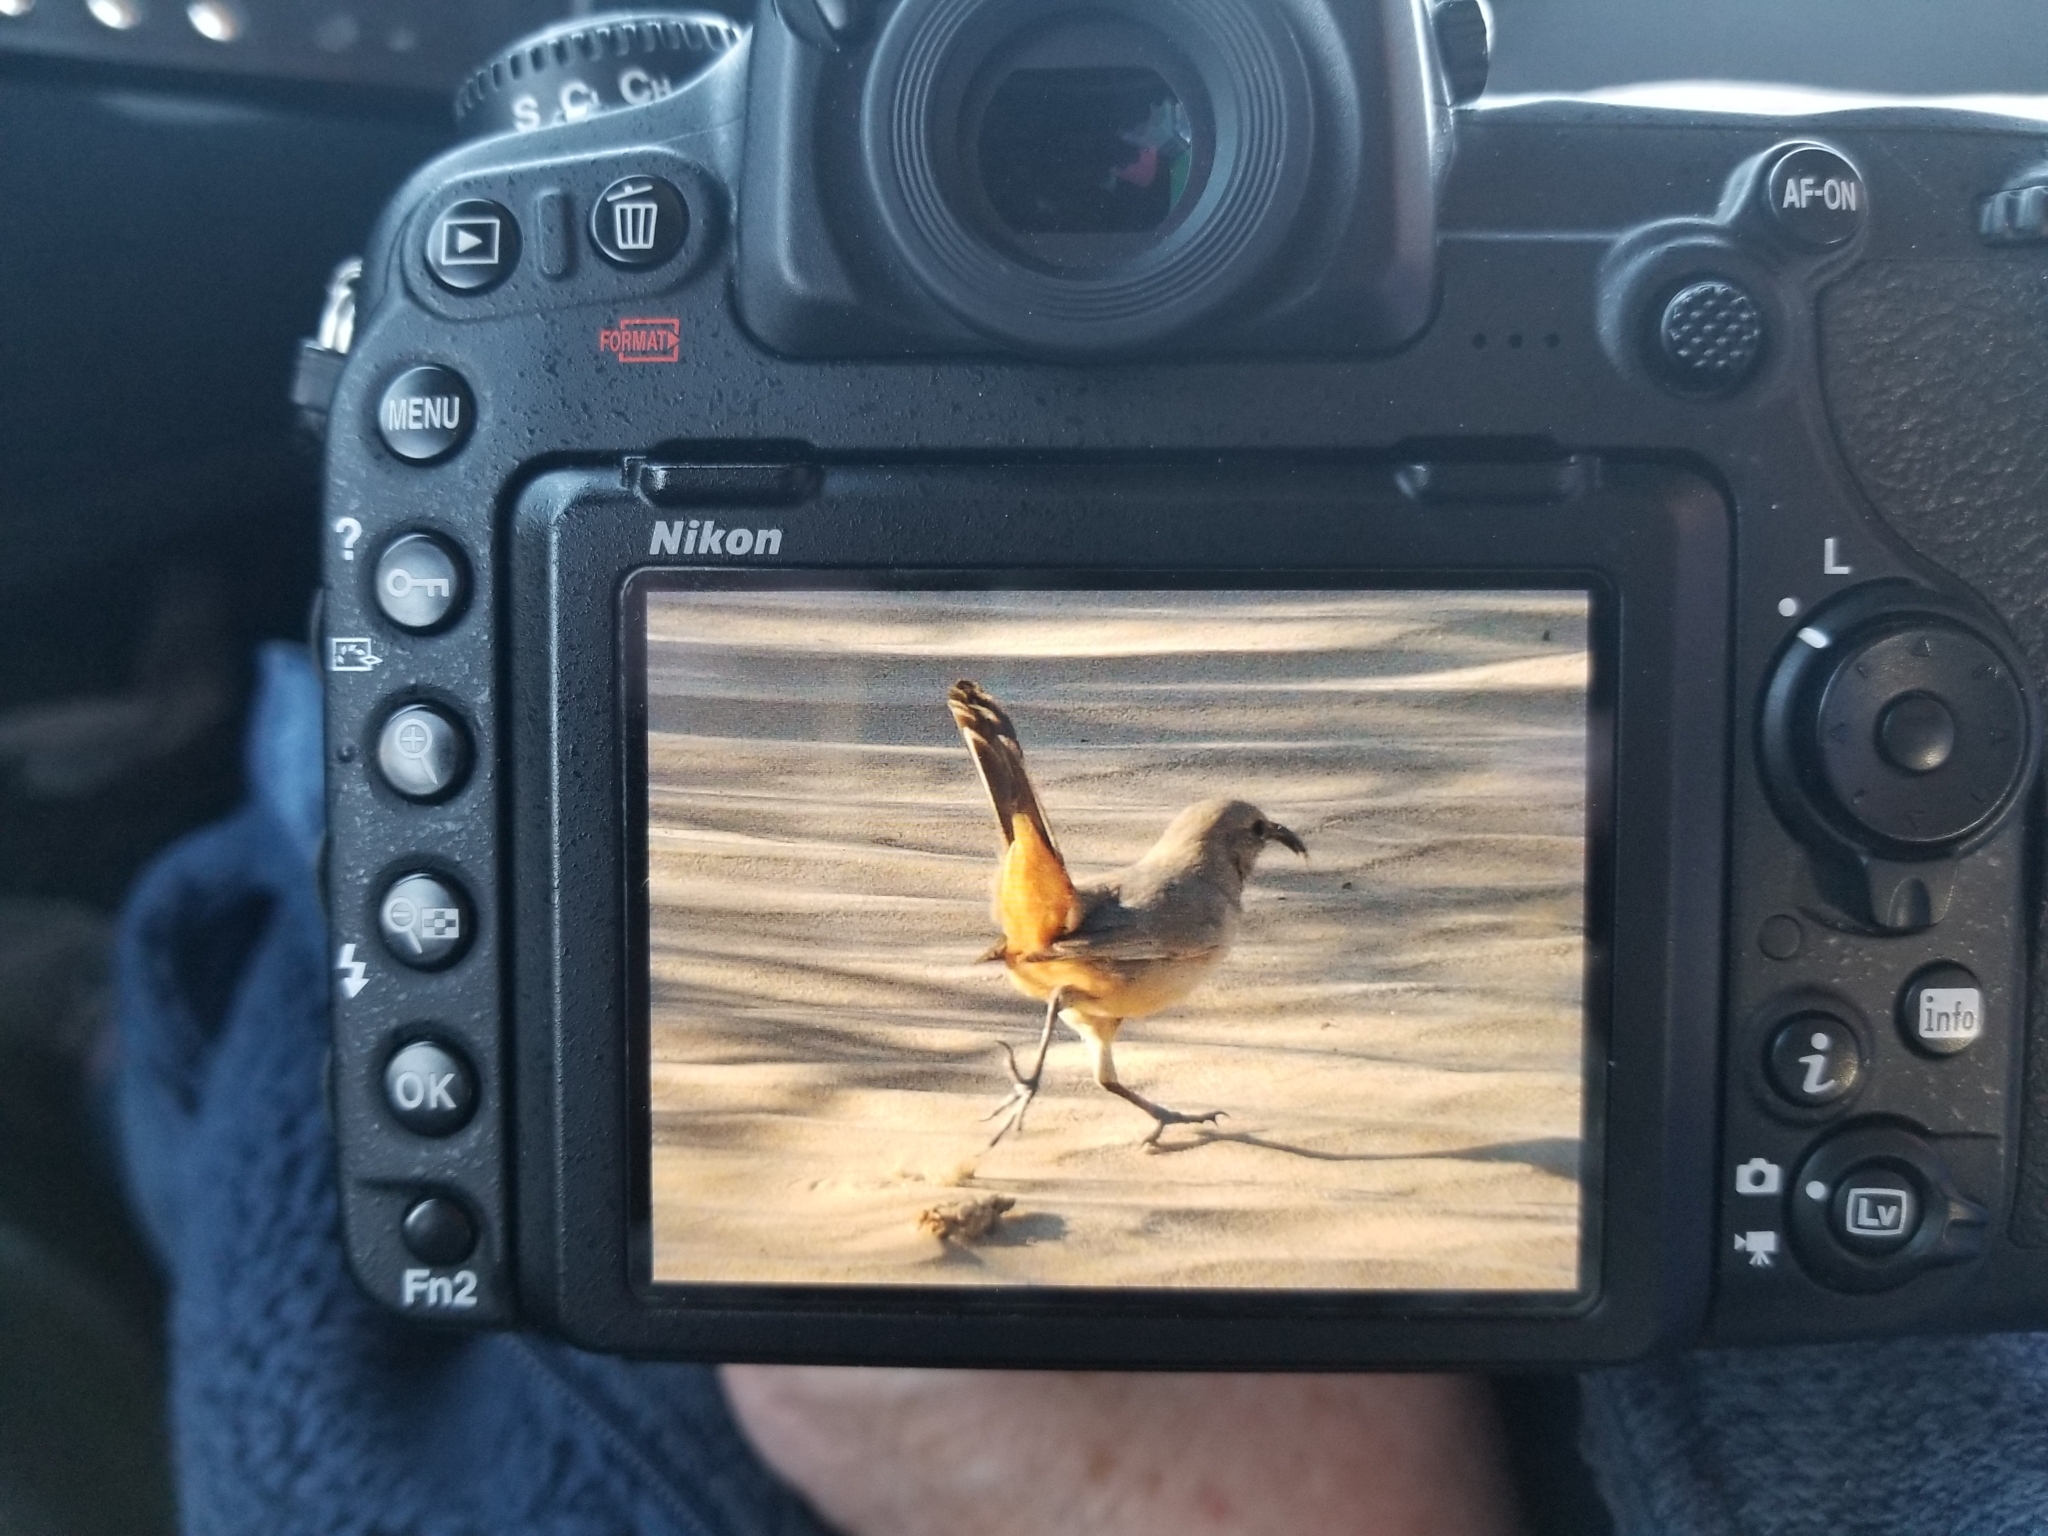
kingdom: Animalia
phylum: Chordata
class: Aves
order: Passeriformes
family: Mimidae
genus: Toxostoma
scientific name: Toxostoma lecontei
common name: Le conte's thrasher
